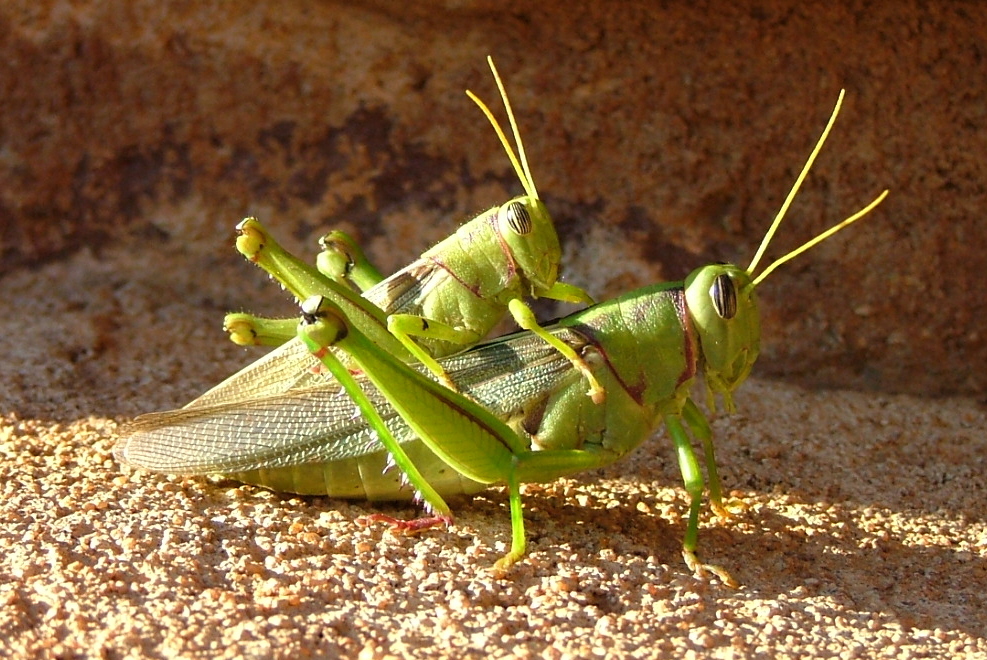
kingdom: Animalia
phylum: Arthropoda
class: Insecta
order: Orthoptera
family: Acrididae
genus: Kraussaria
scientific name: Kraussaria prasina
